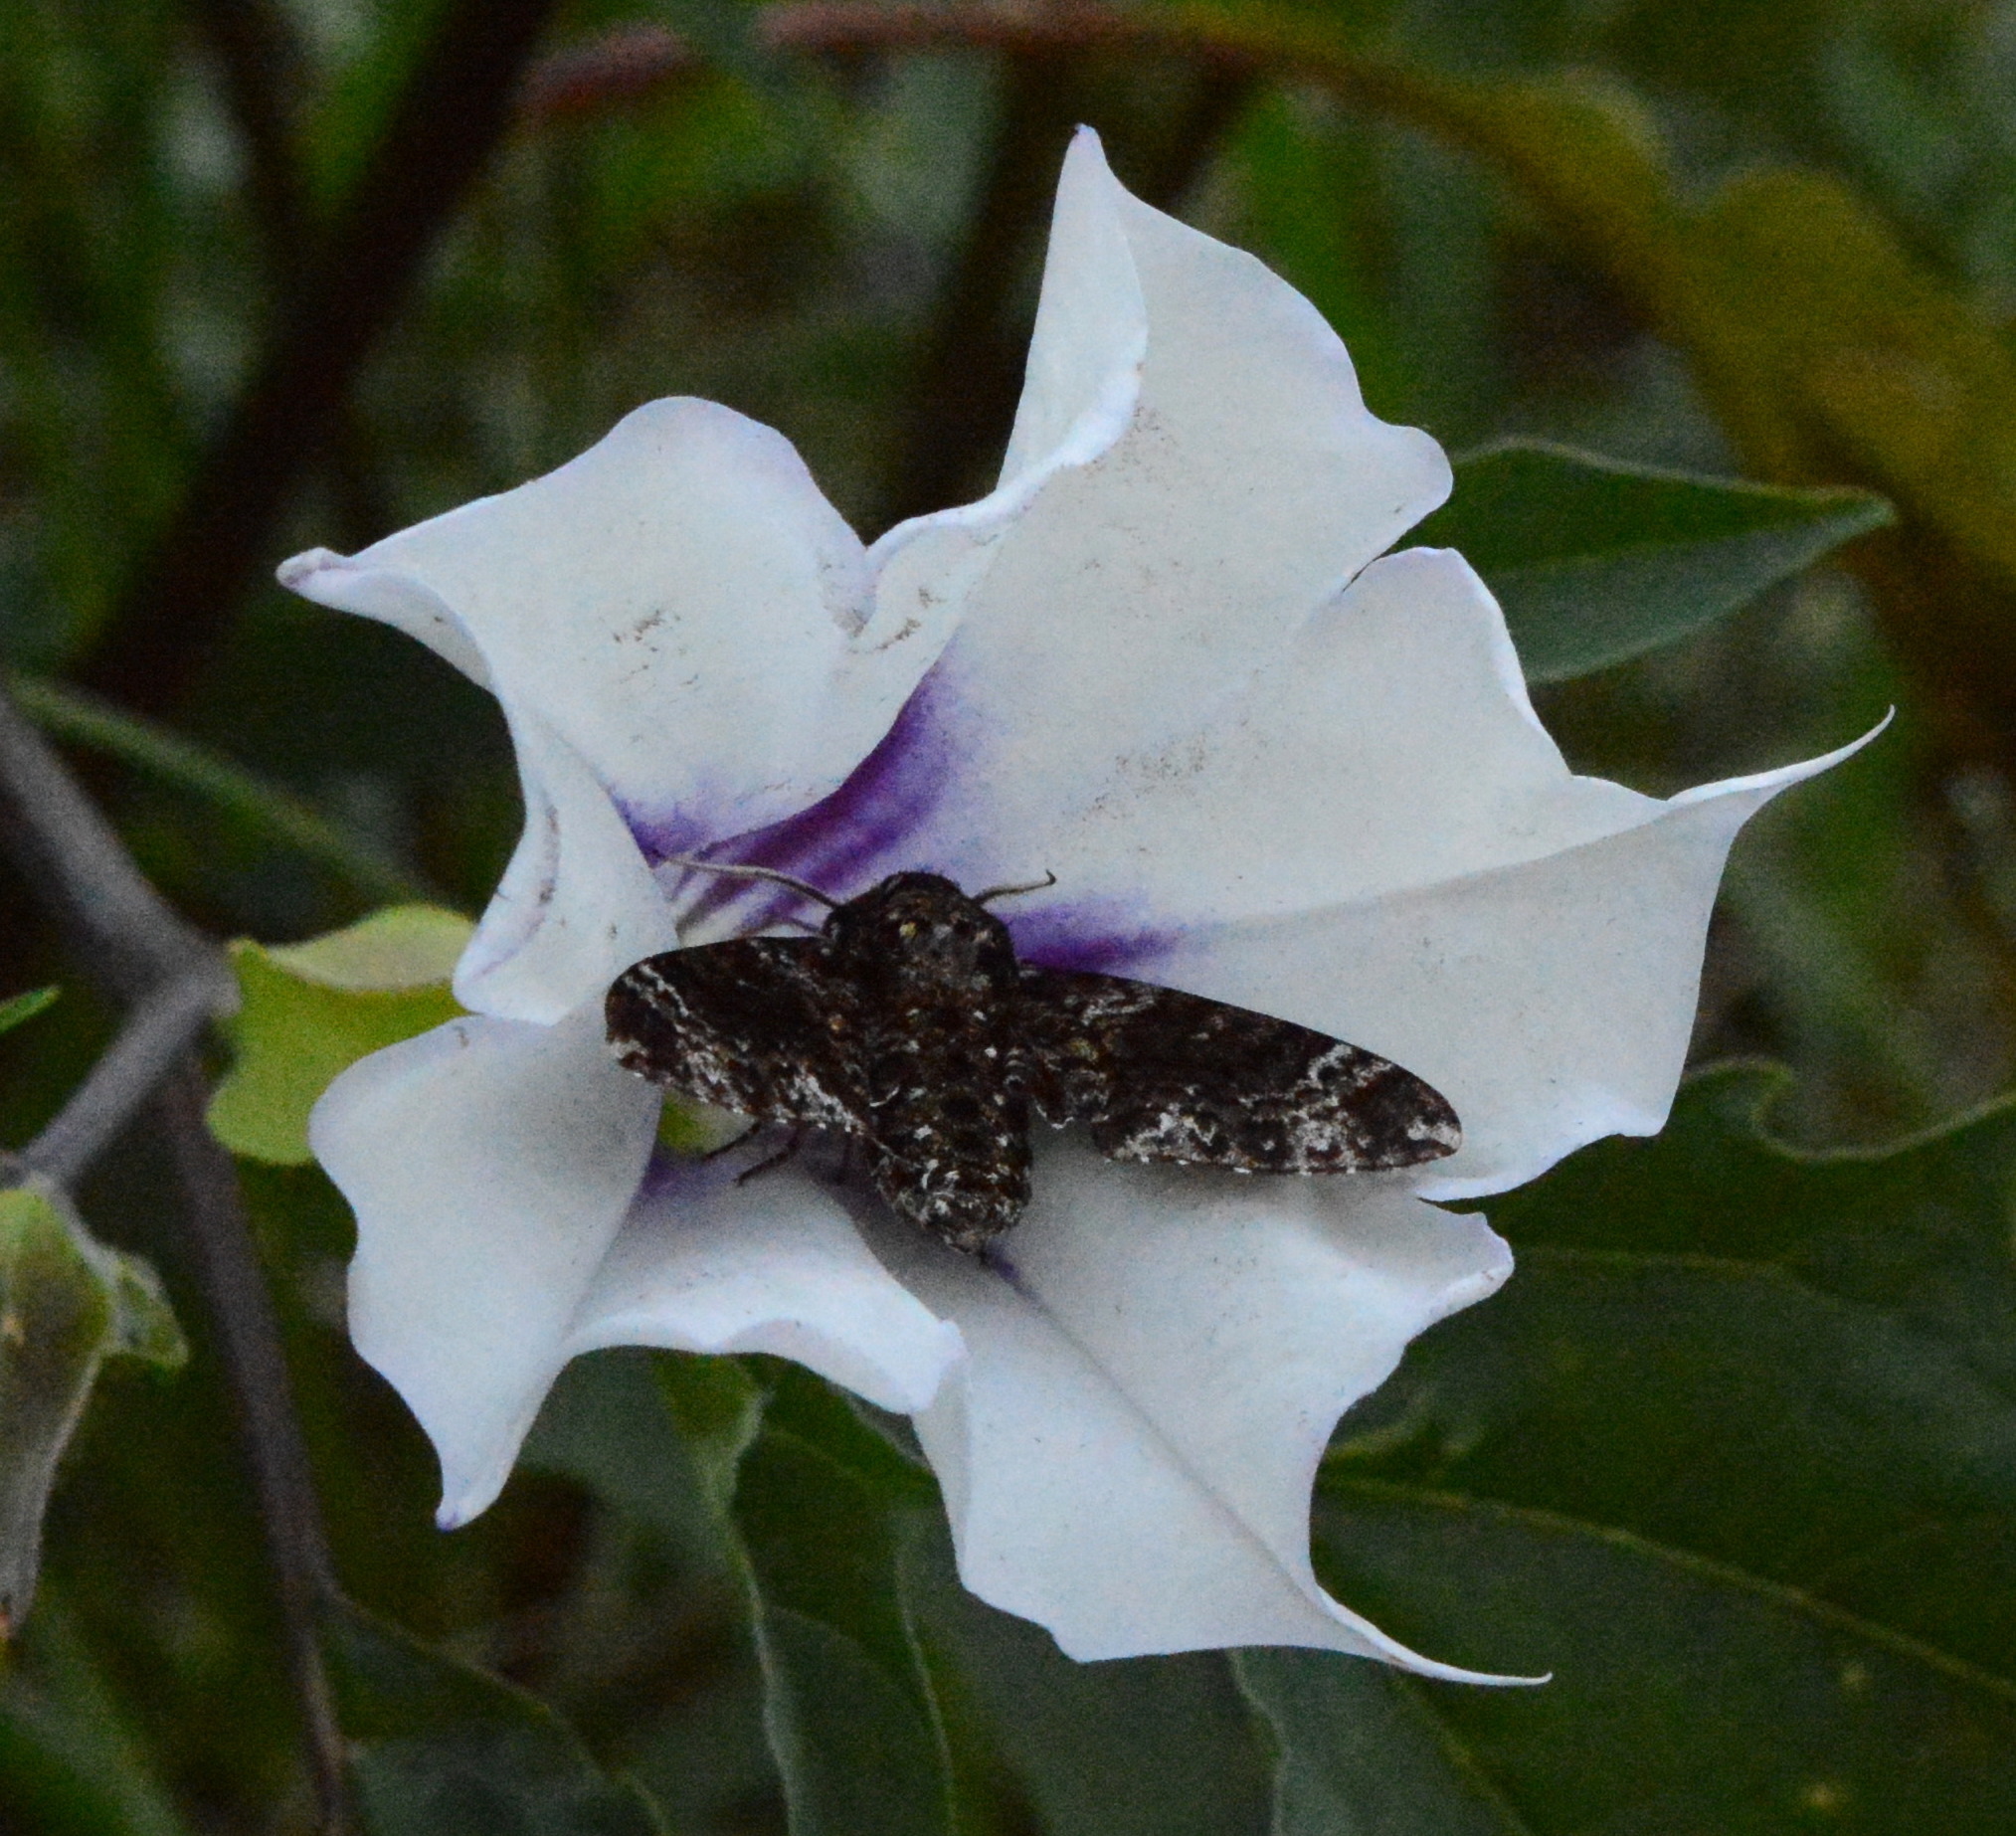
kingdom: Animalia
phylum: Arthropoda
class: Insecta
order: Lepidoptera
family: Sphingidae
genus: Dolba
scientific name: Dolba hyloeus
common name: Pawpaw sphinx
